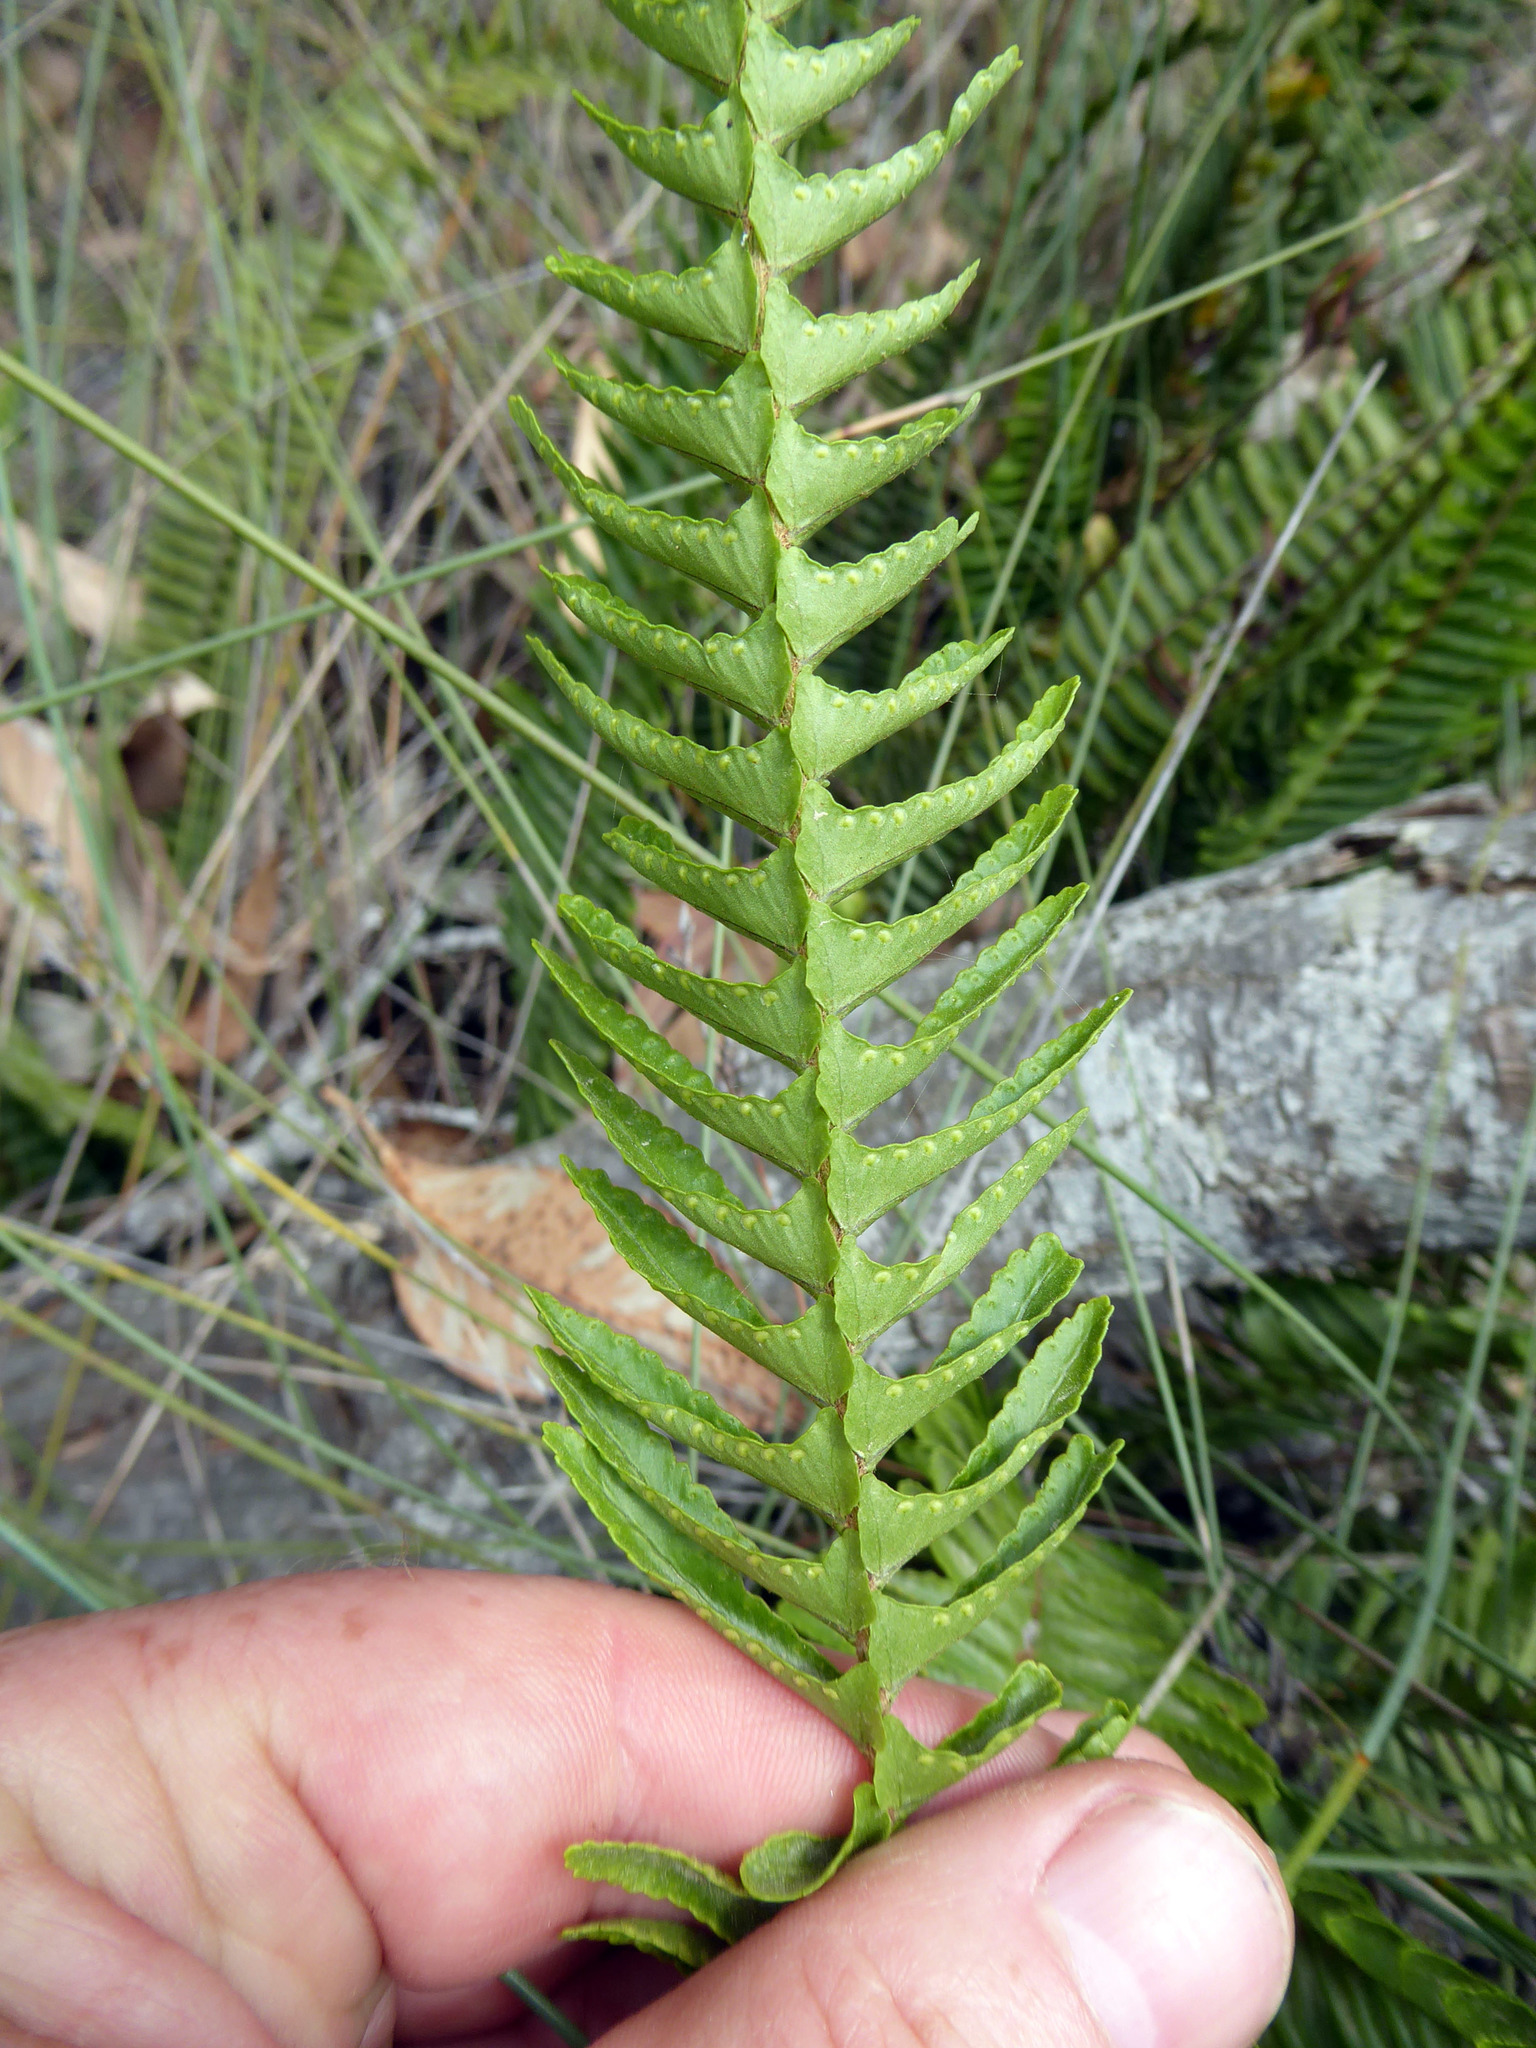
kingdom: Plantae
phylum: Tracheophyta
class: Polypodiopsida
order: Polypodiales
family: Nephrolepidaceae
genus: Nephrolepis
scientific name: Nephrolepis cordifolia
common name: Narrow swordfern
